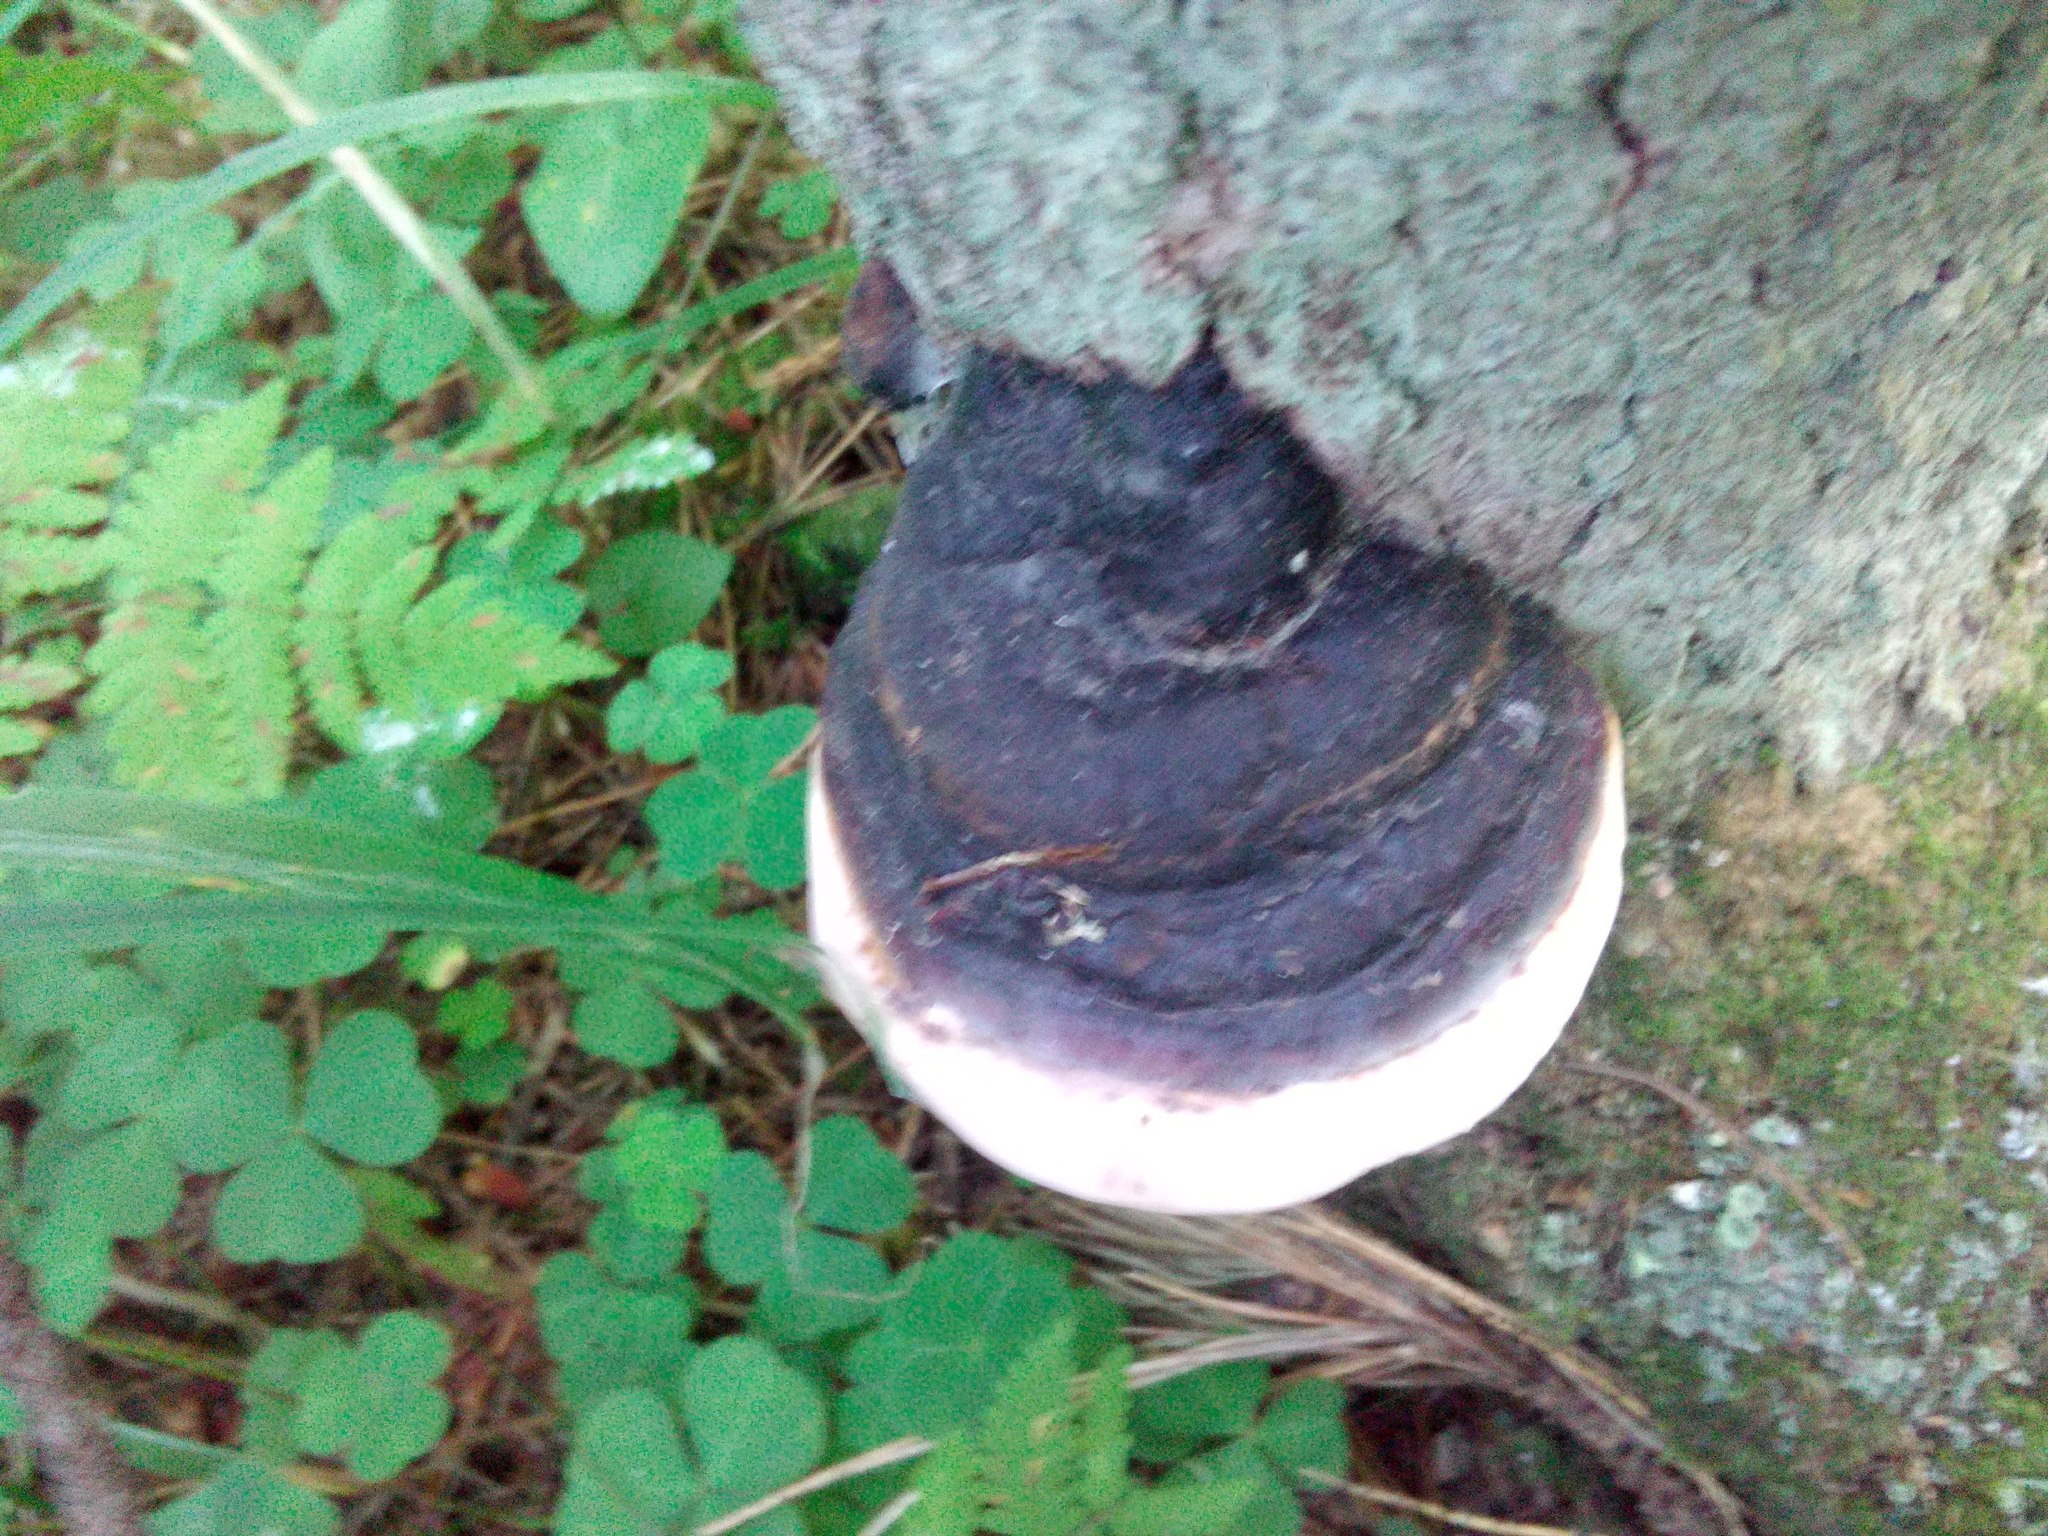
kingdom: Fungi
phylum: Basidiomycota
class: Agaricomycetes
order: Polyporales
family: Fomitopsidaceae
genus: Fomitopsis
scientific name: Fomitopsis pinicola
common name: Red-belted bracket
